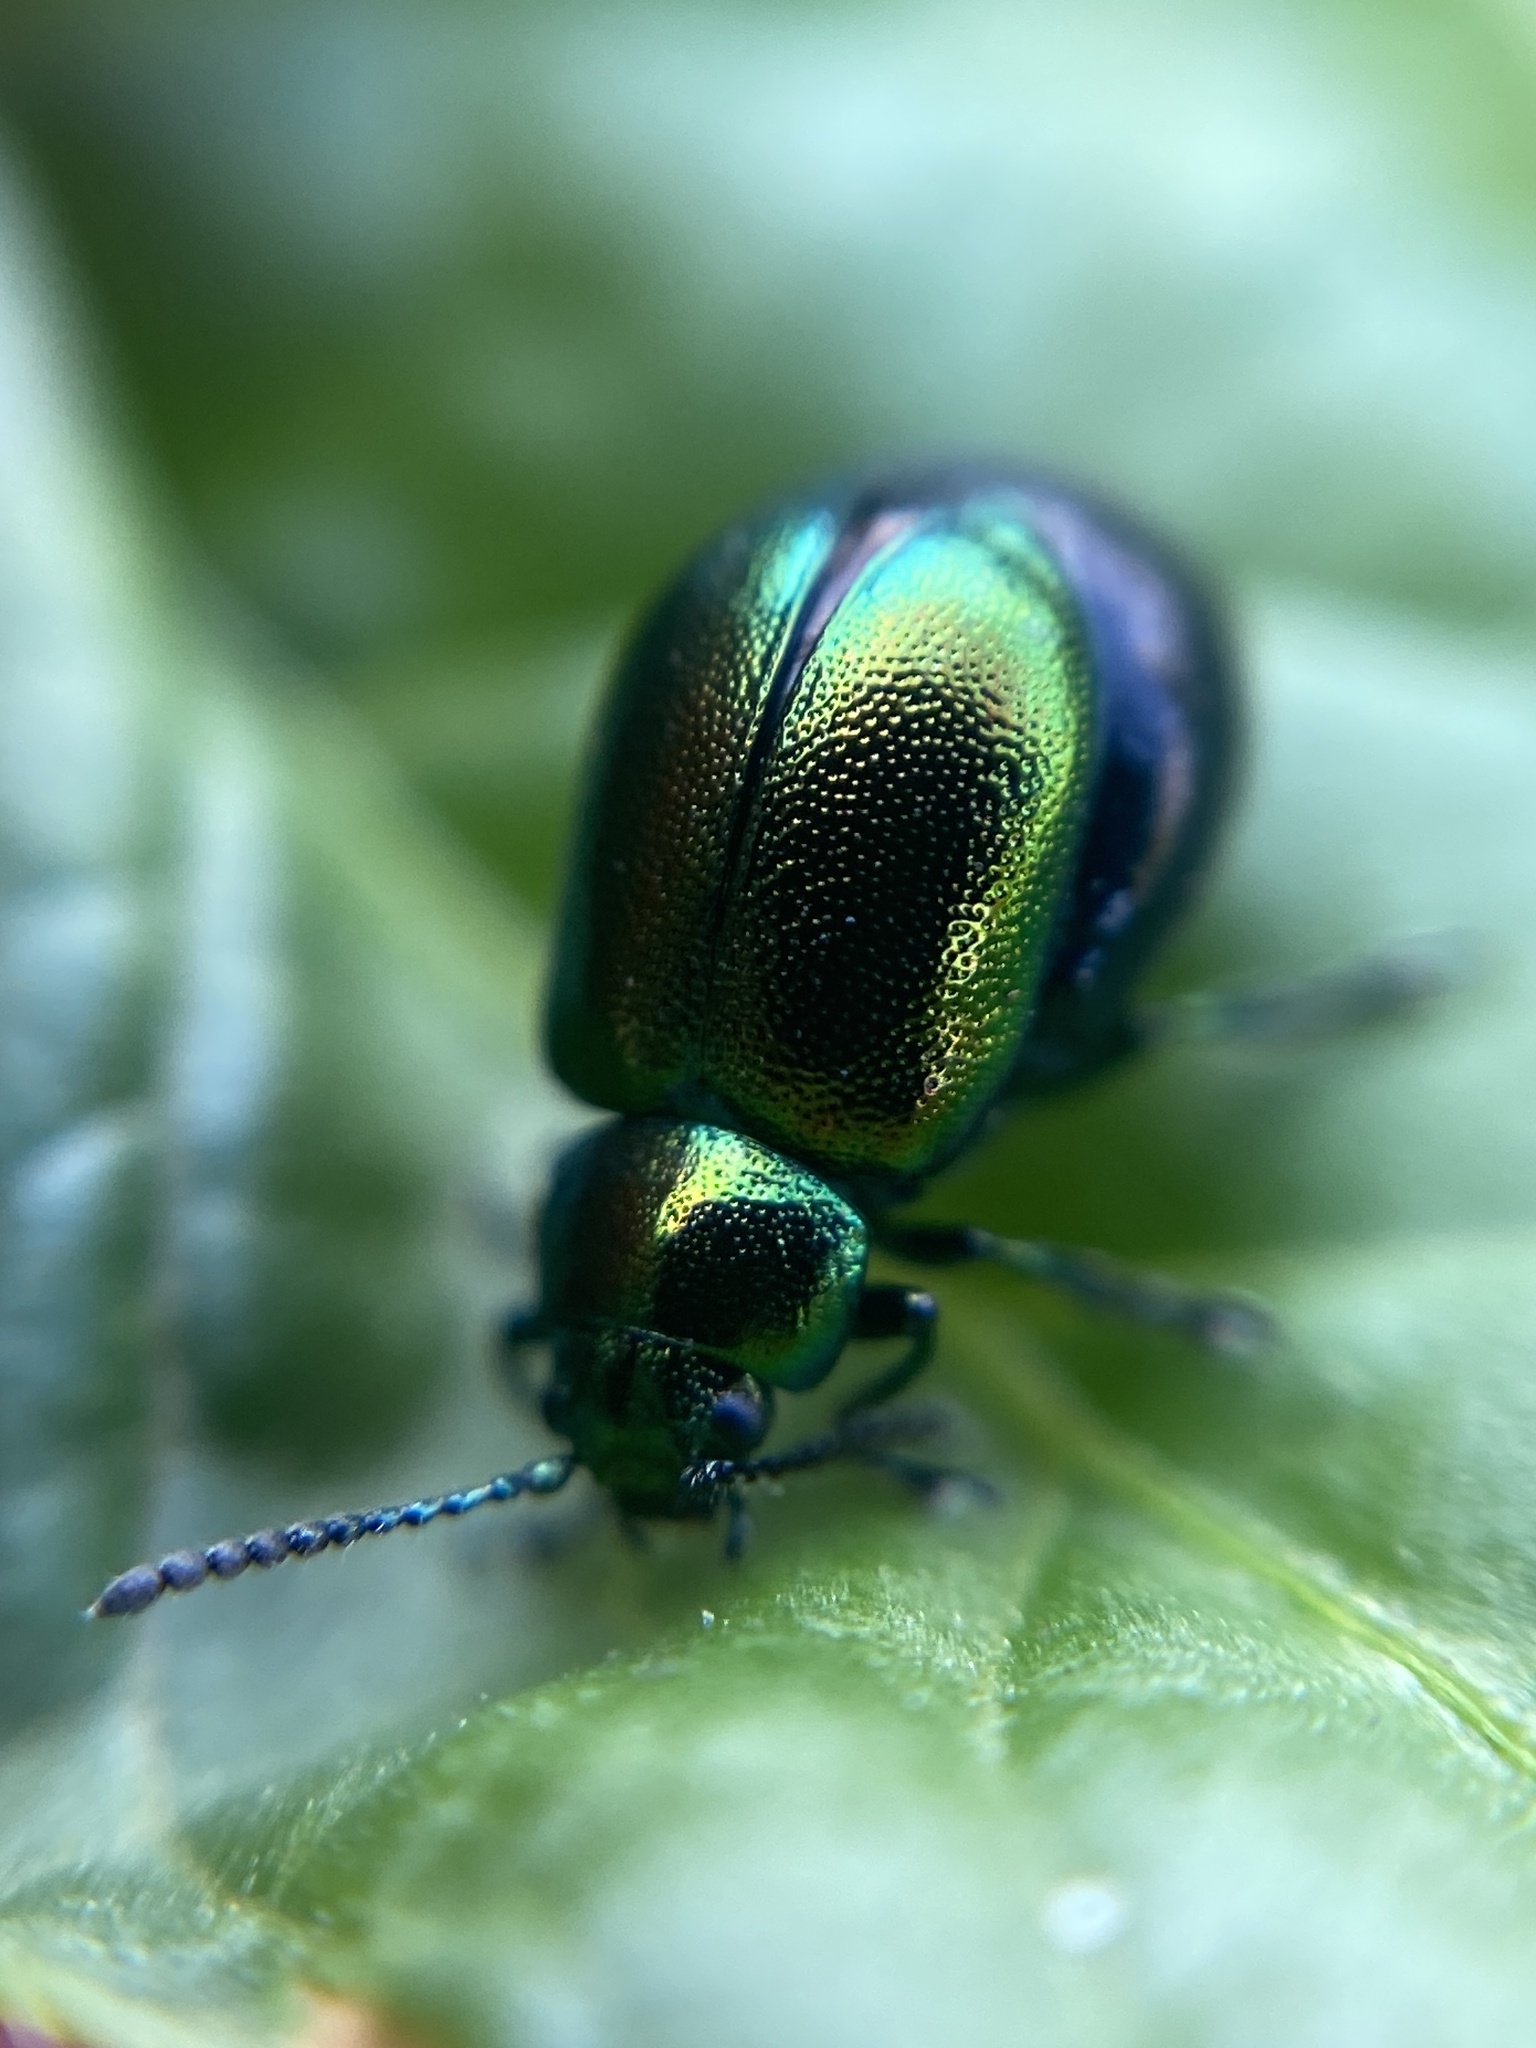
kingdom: Animalia
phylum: Arthropoda
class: Insecta
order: Coleoptera
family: Chrysomelidae
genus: Gastrophysa
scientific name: Gastrophysa viridula
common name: Green dock beetle
